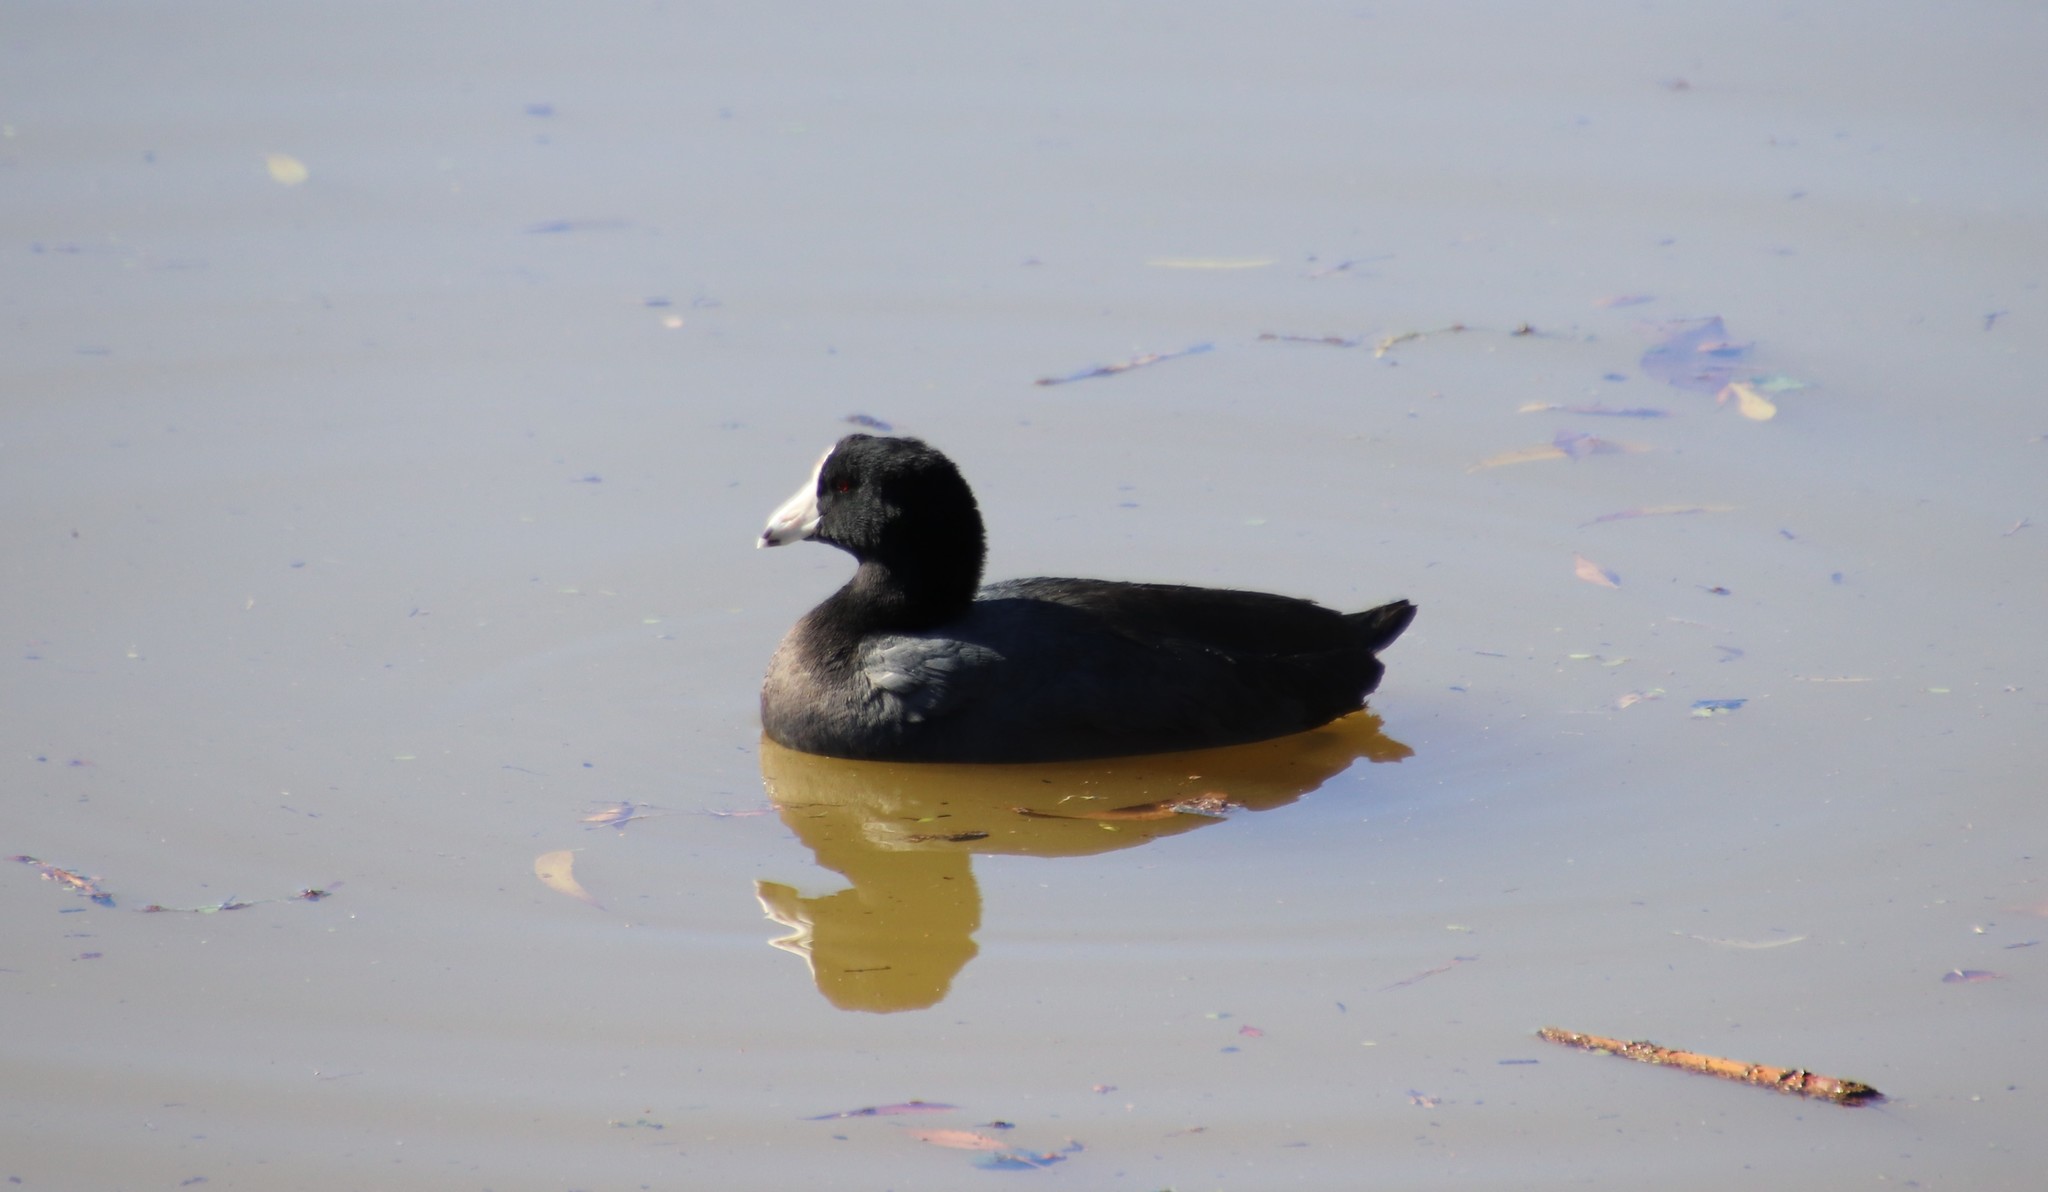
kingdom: Animalia
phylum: Chordata
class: Aves
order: Gruiformes
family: Rallidae
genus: Fulica
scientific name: Fulica americana
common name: American coot
